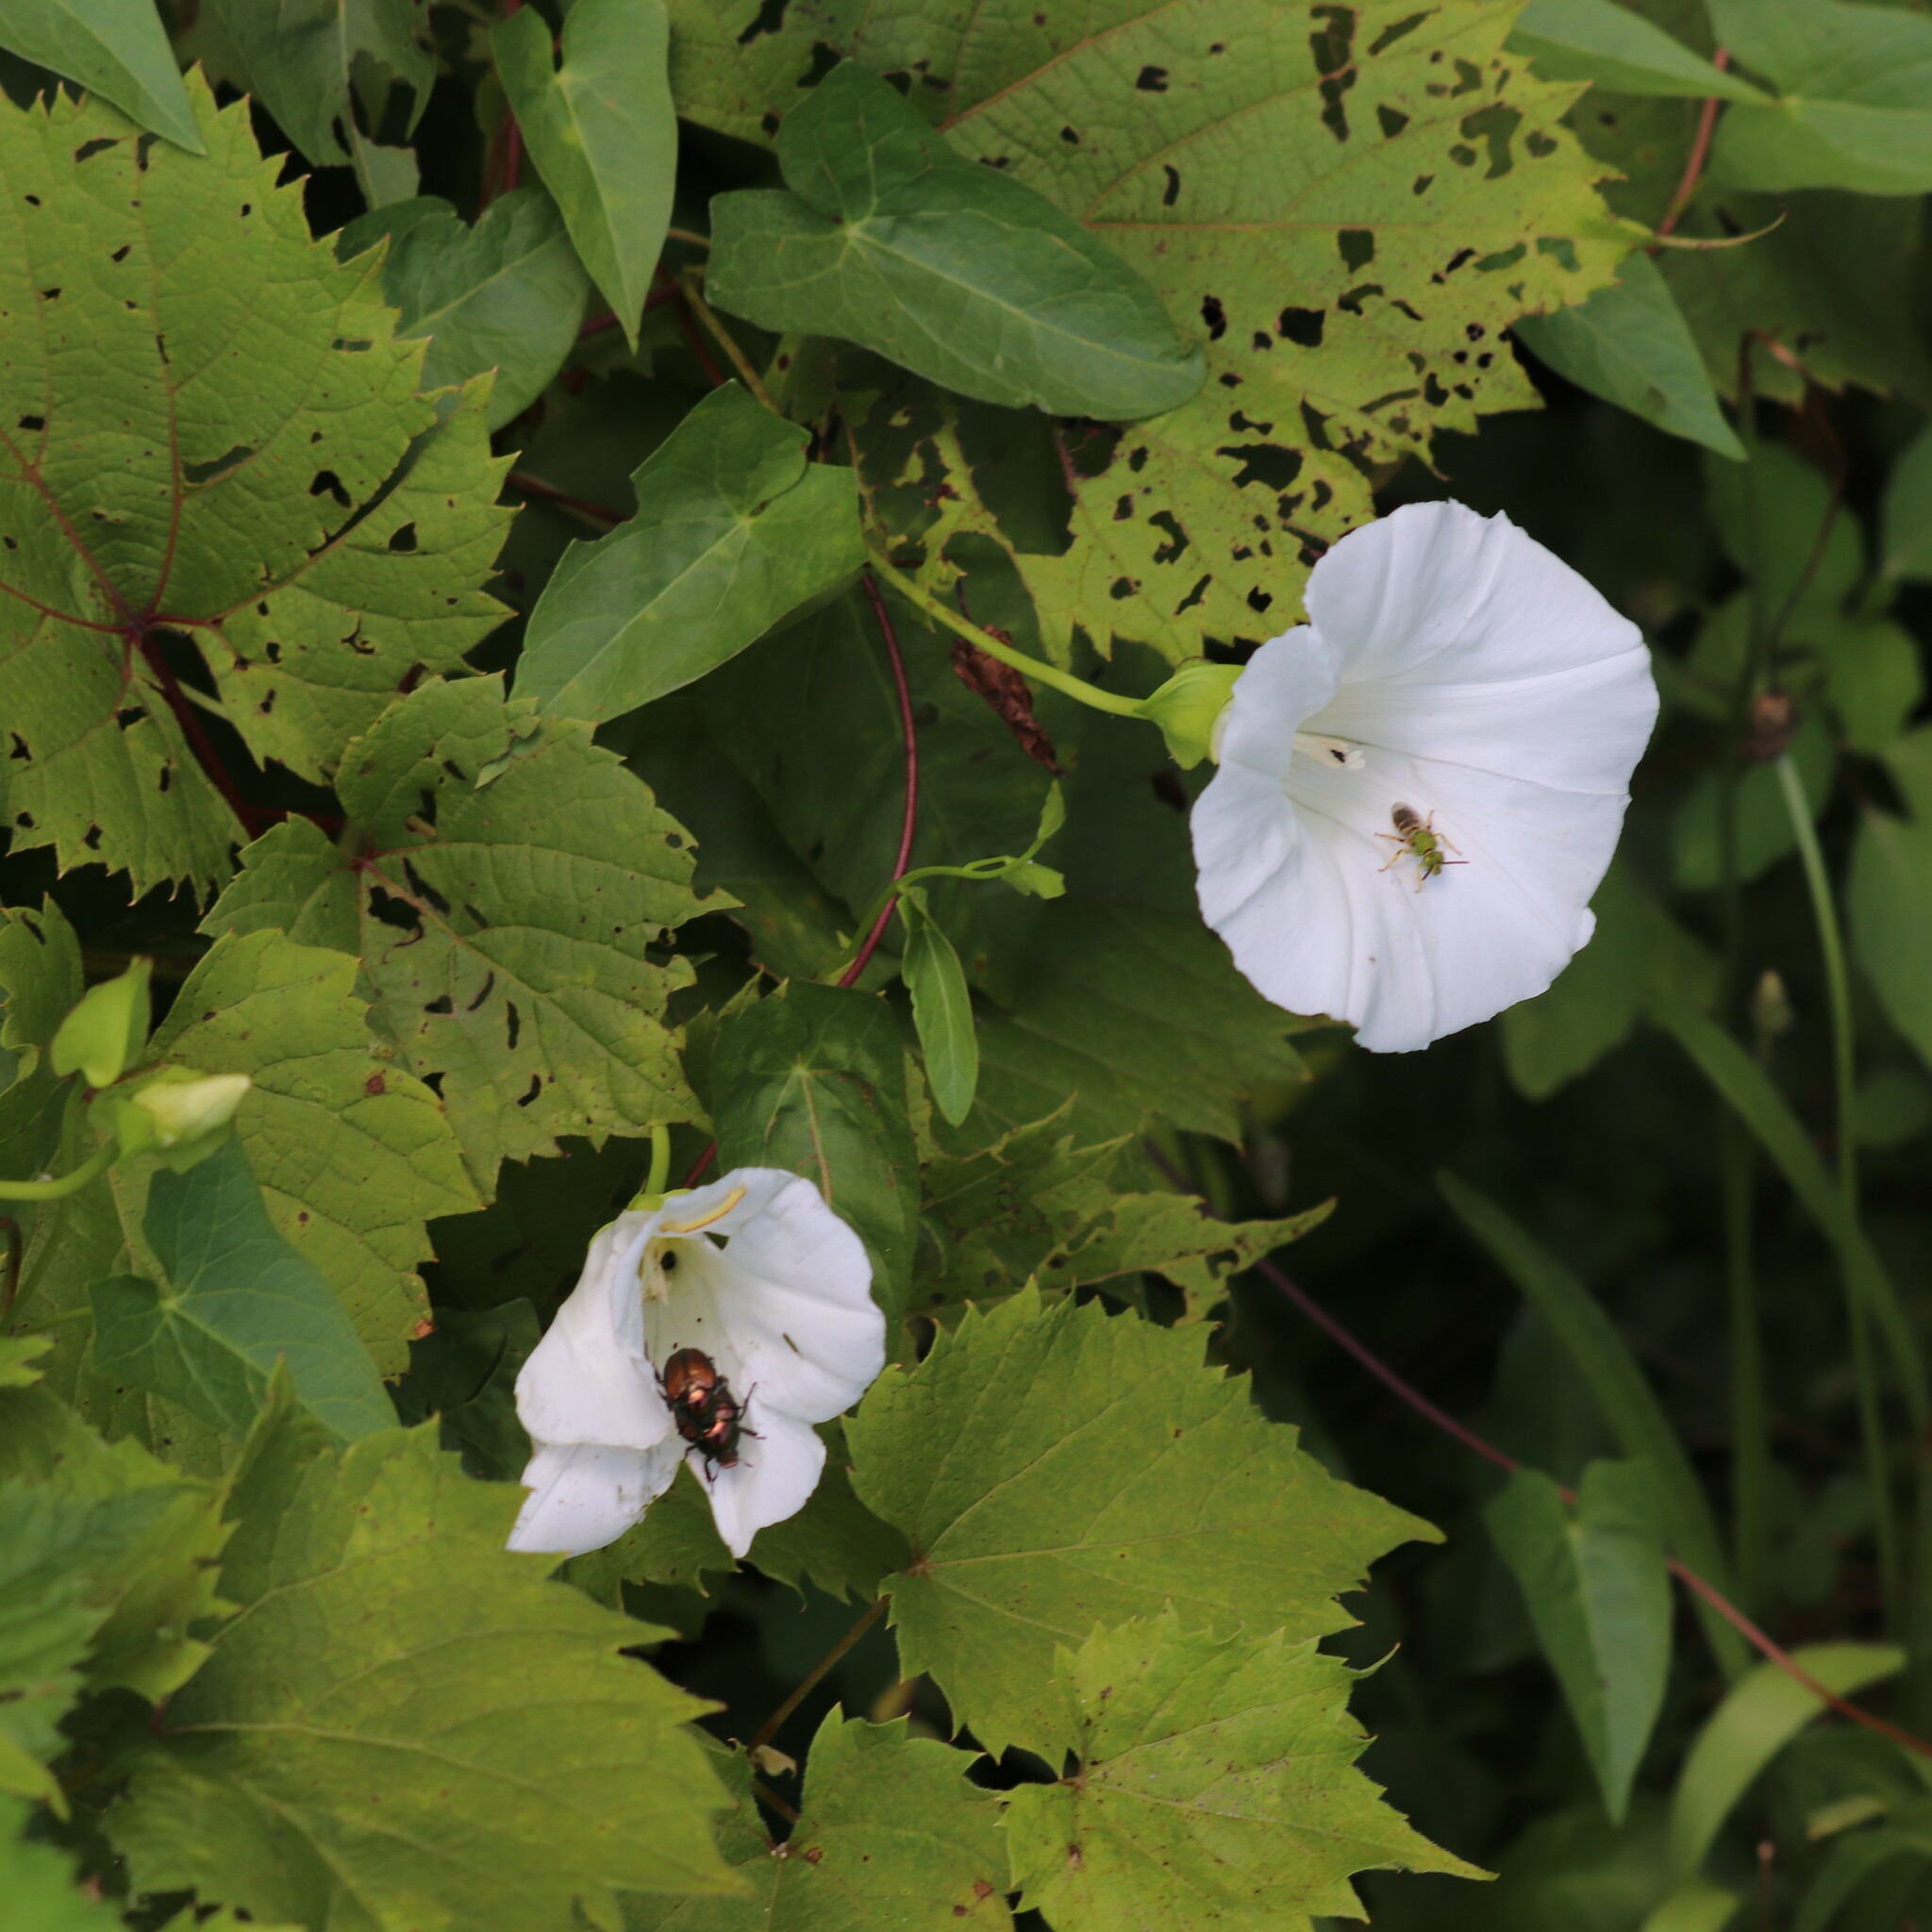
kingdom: Plantae
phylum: Tracheophyta
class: Magnoliopsida
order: Solanales
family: Convolvulaceae
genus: Calystegia
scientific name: Calystegia sepium
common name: Hedge bindweed
